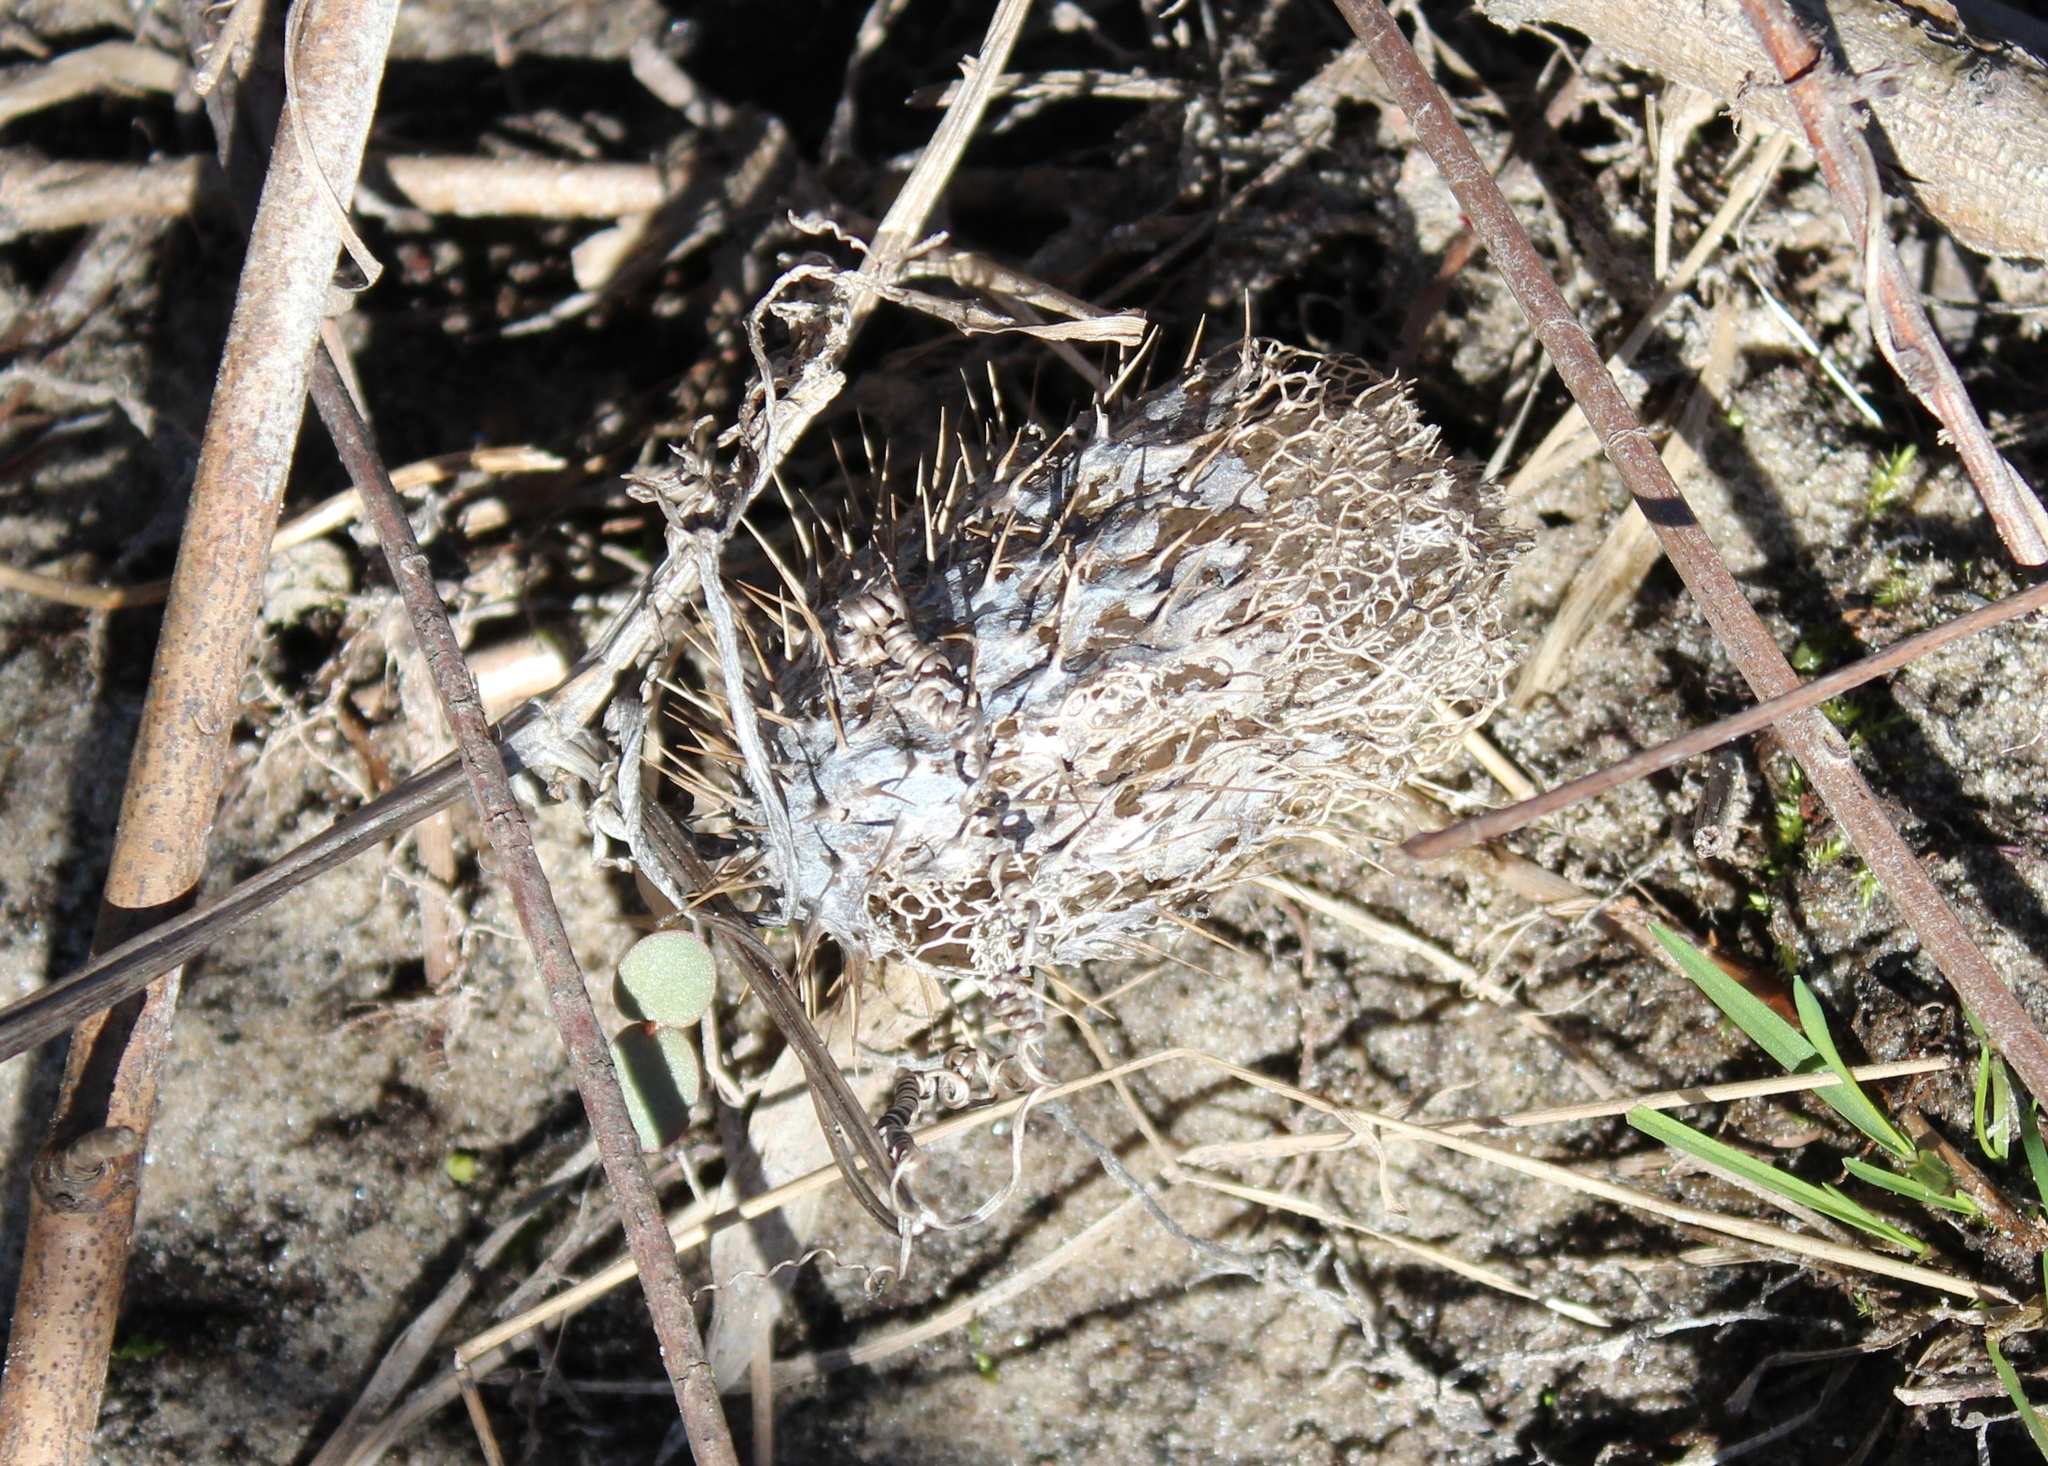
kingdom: Plantae
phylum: Tracheophyta
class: Magnoliopsida
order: Cucurbitales
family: Cucurbitaceae
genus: Echinocystis
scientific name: Echinocystis lobata
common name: Wild cucumber
